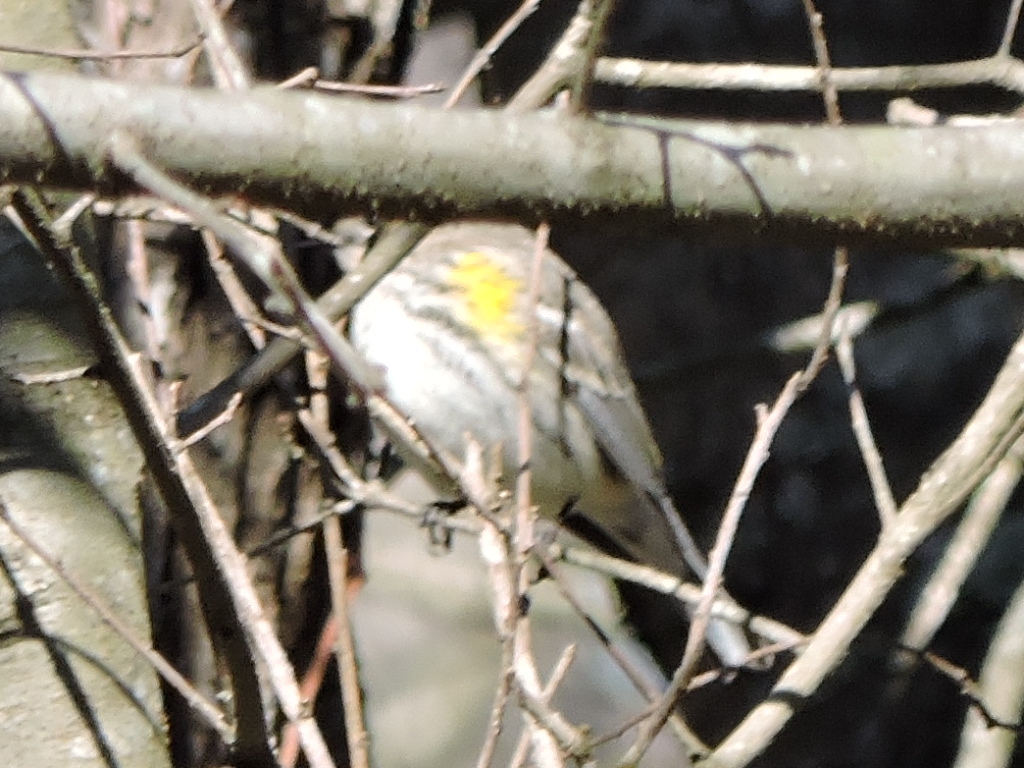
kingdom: Animalia
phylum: Chordata
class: Aves
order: Passeriformes
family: Parulidae
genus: Setophaga
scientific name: Setophaga coronata
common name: Myrtle warbler
